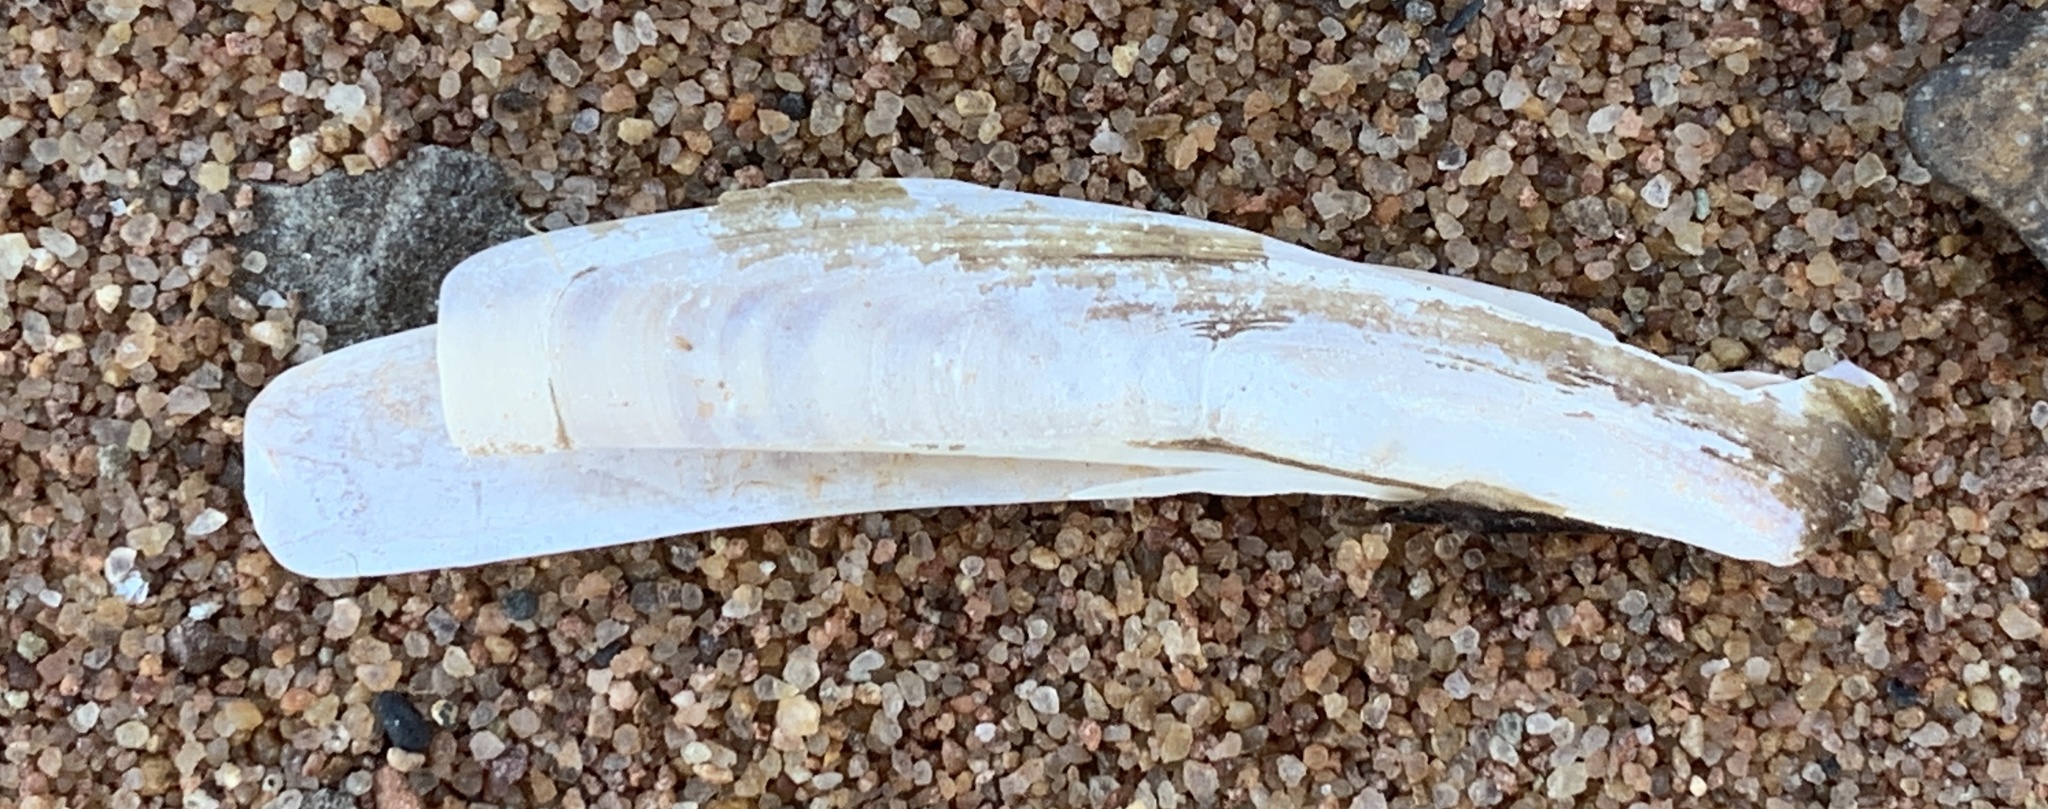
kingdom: Animalia
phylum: Mollusca
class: Bivalvia
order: Adapedonta
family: Pharidae
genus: Ensis
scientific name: Ensis leei
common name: American jack knife clam
